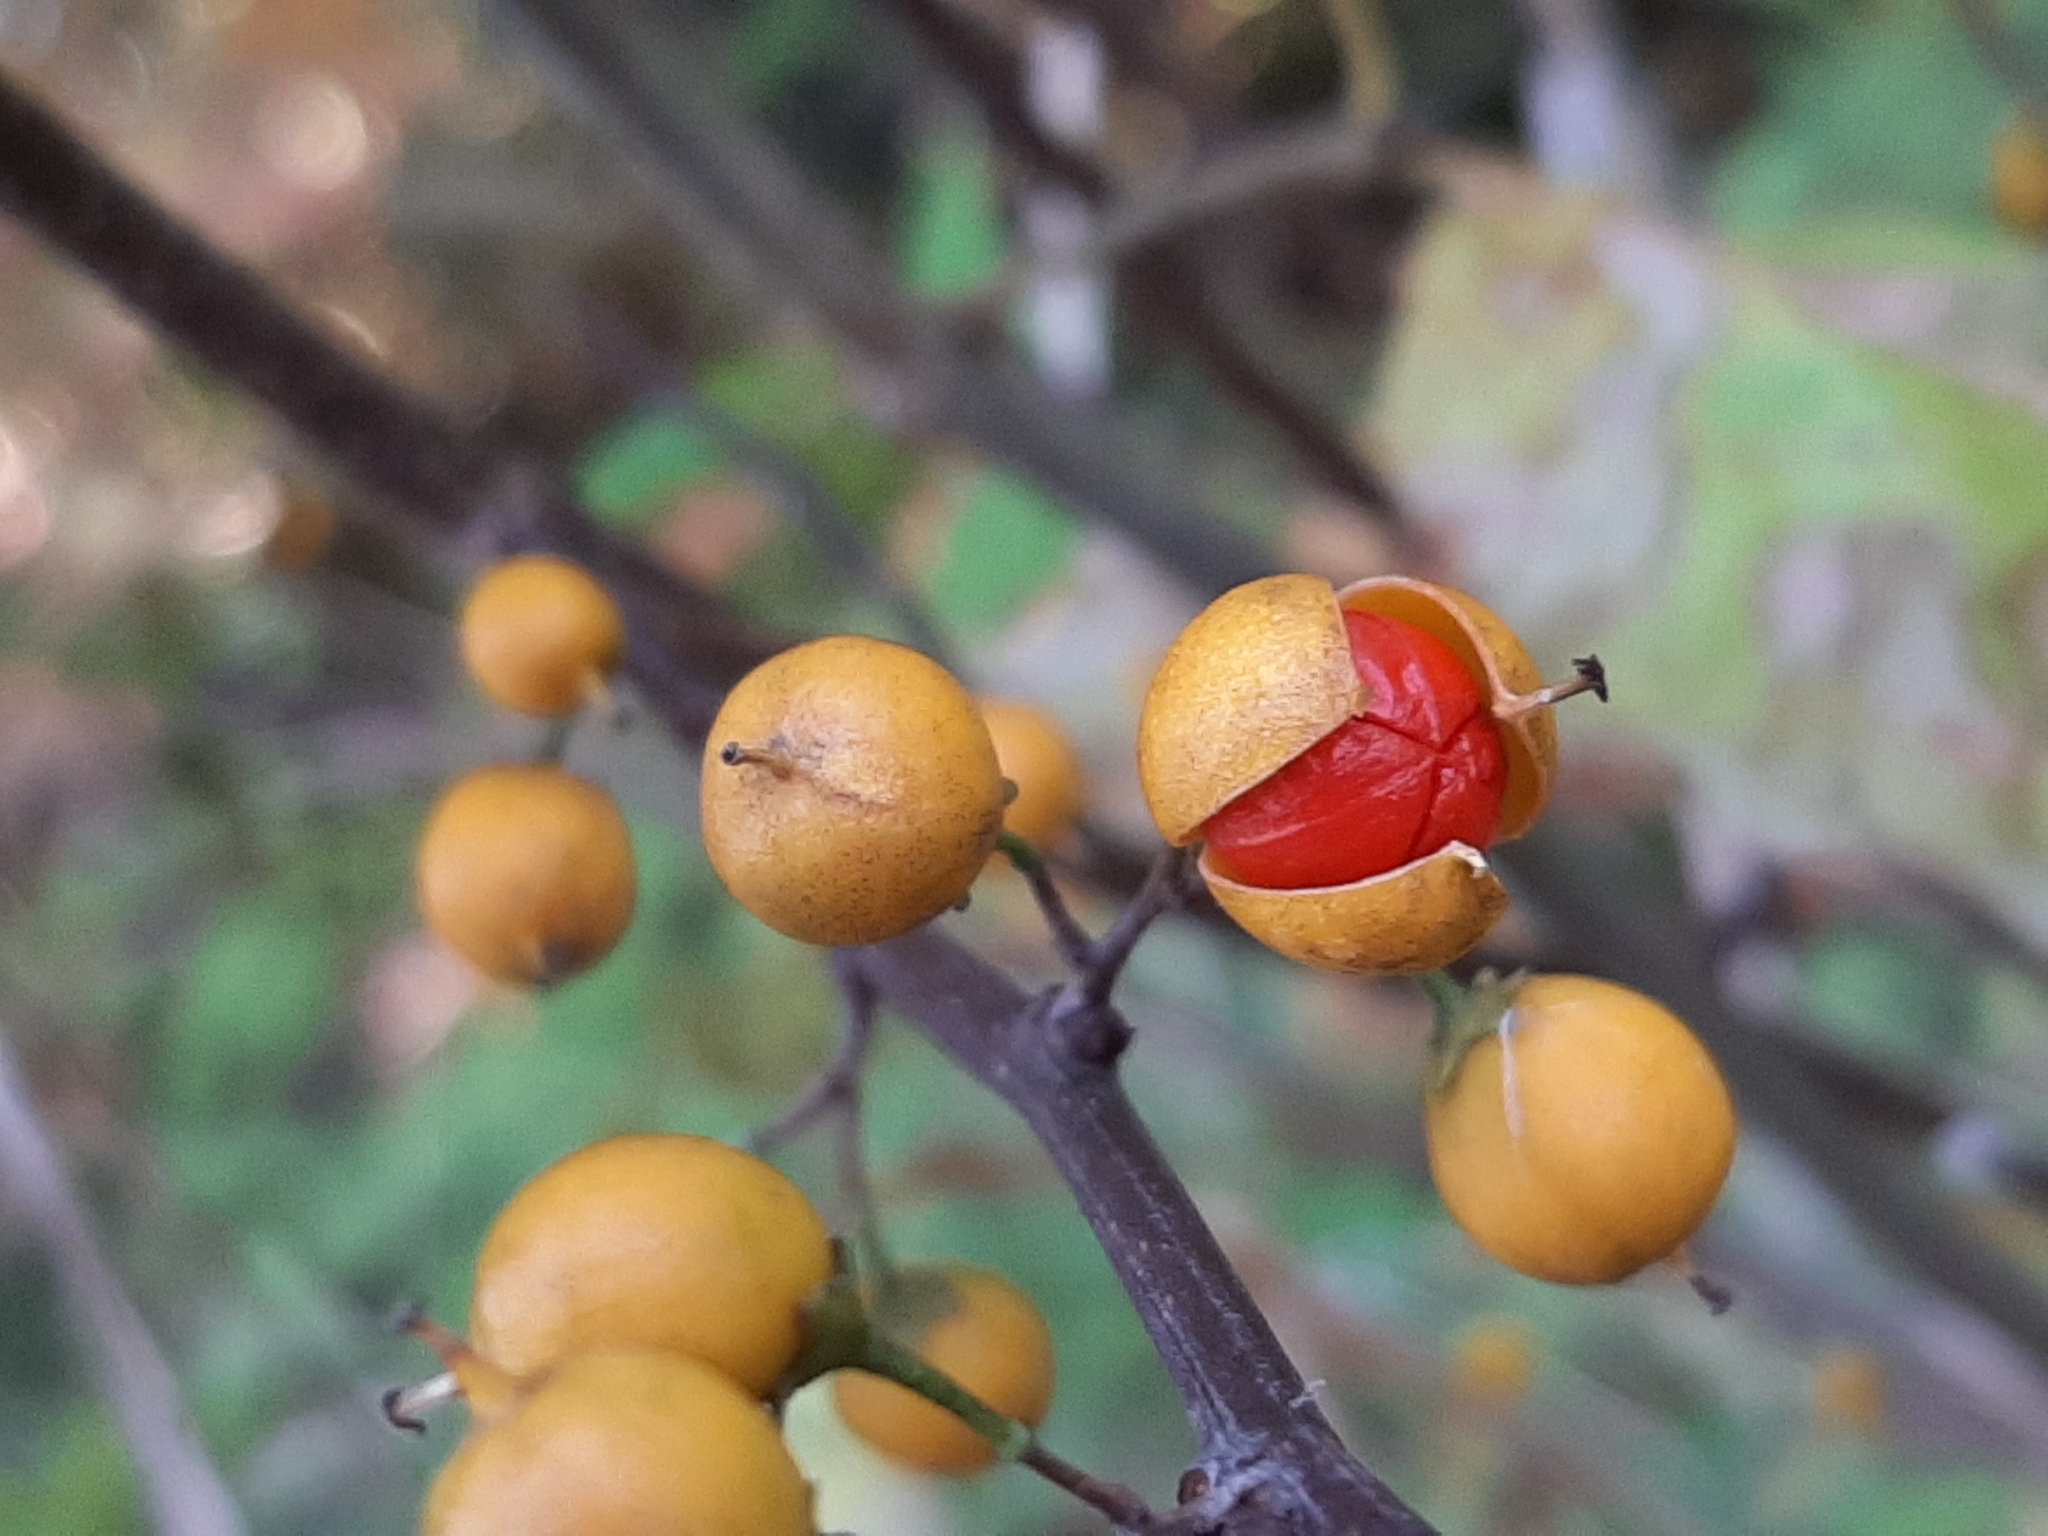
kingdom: Plantae
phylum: Tracheophyta
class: Magnoliopsida
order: Celastrales
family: Celastraceae
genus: Celastrus
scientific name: Celastrus orbiculatus
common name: Oriental bittersweet
